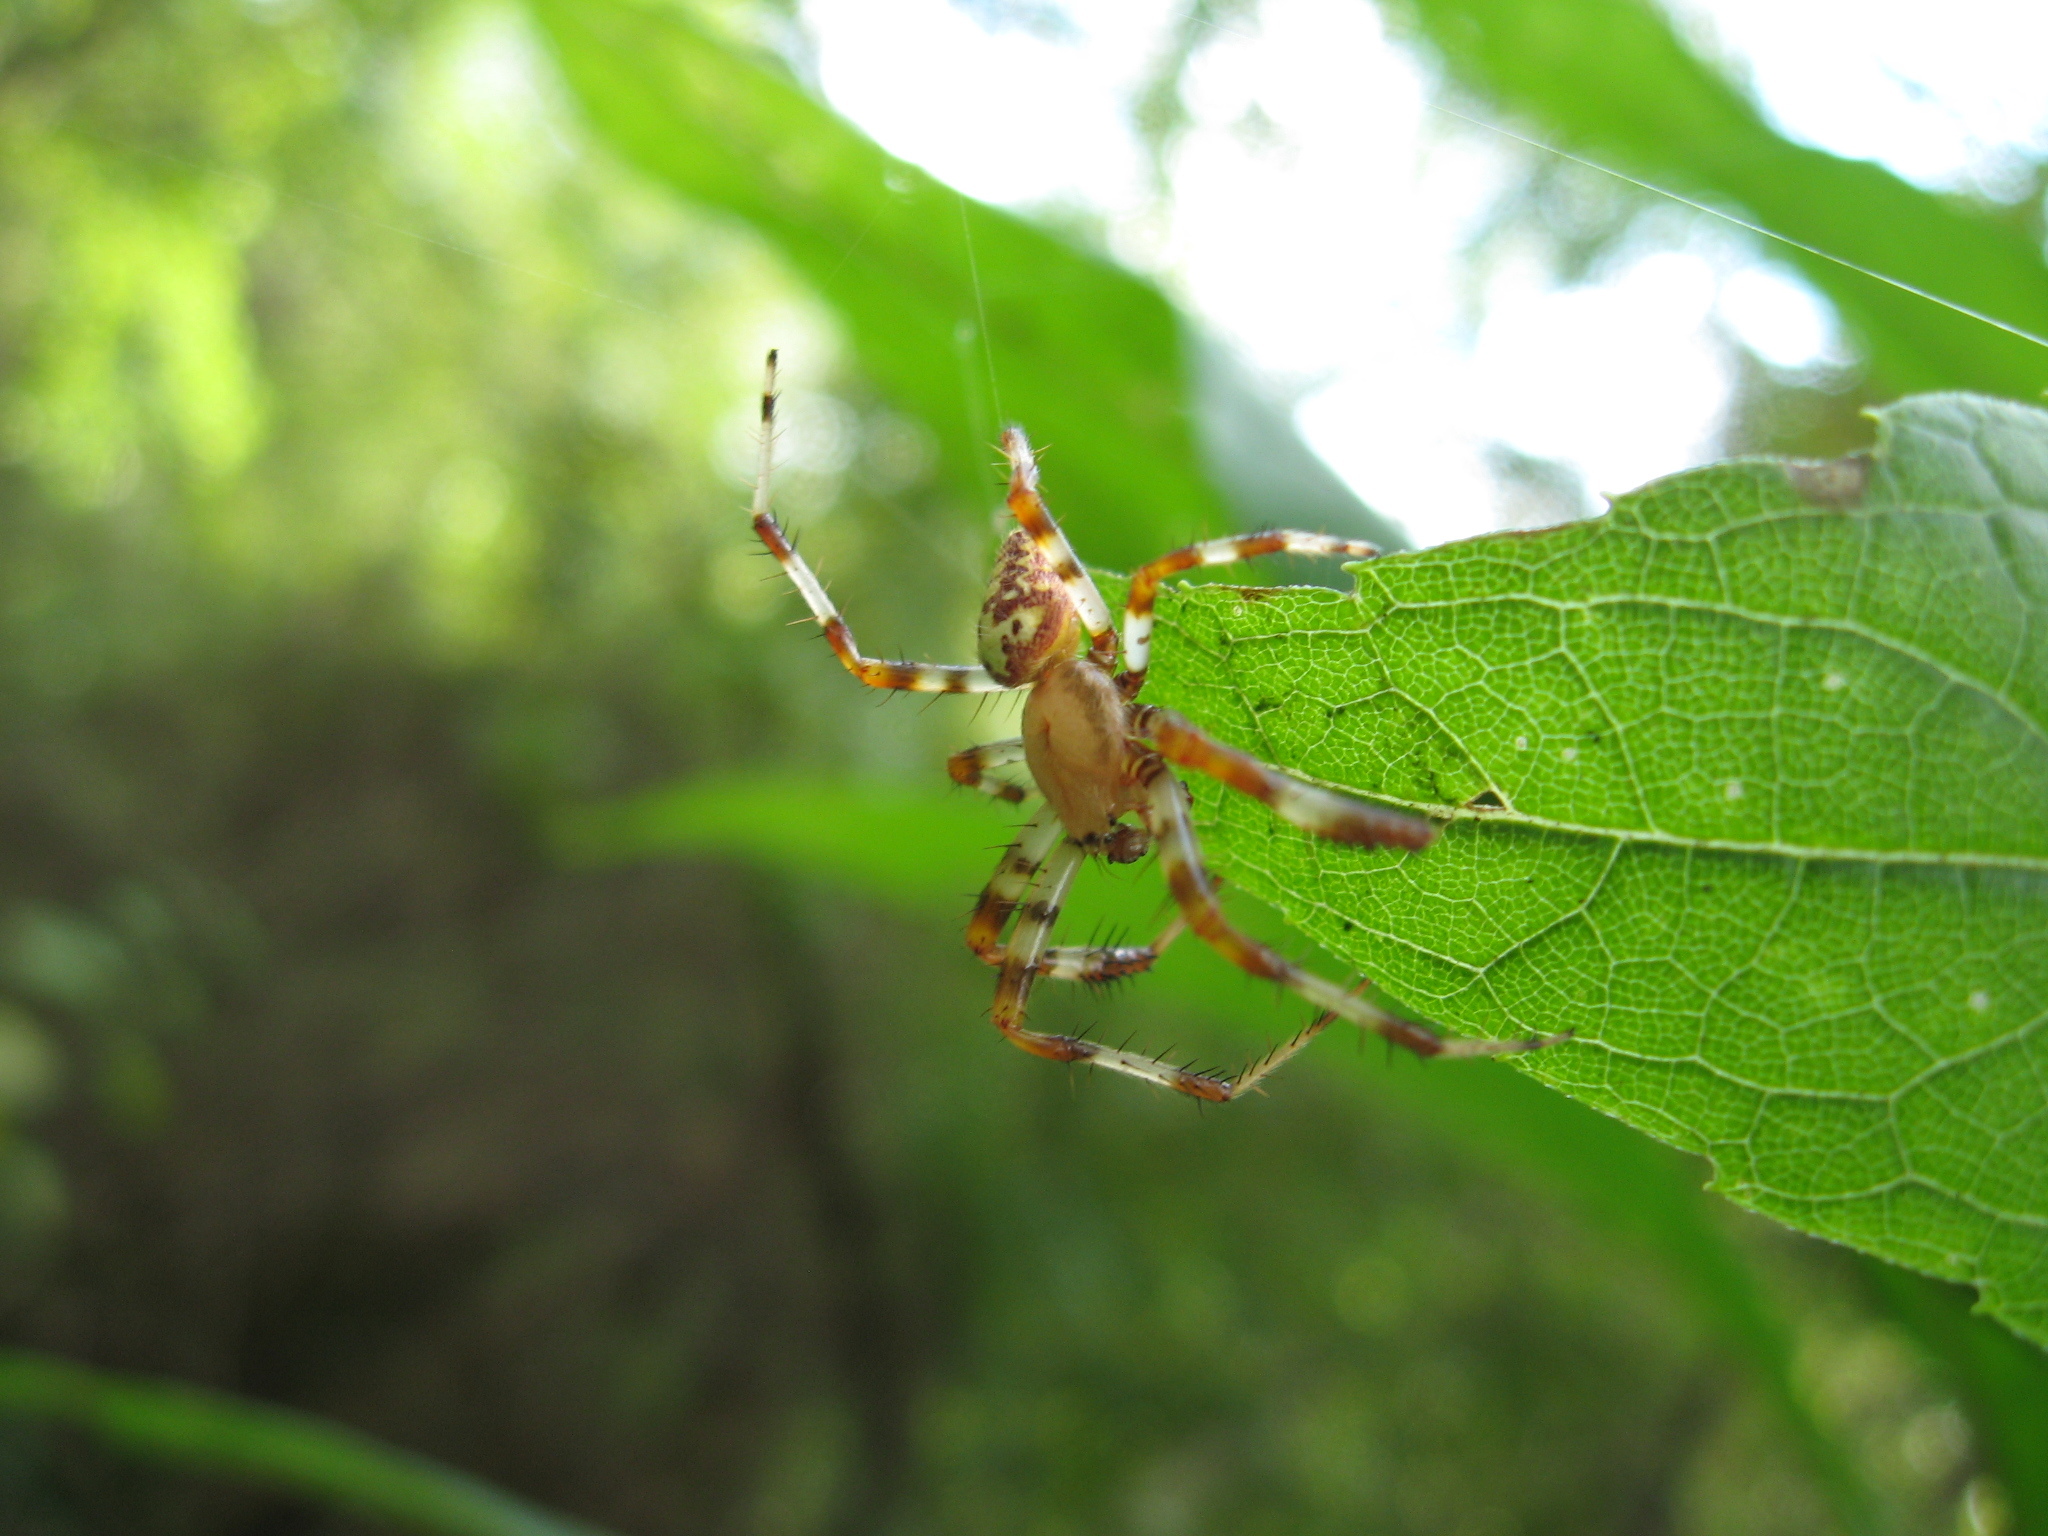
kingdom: Animalia
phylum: Arthropoda
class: Arachnida
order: Araneae
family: Araneidae
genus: Araneus
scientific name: Araneus marmoreus
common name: Marbled orbweaver
